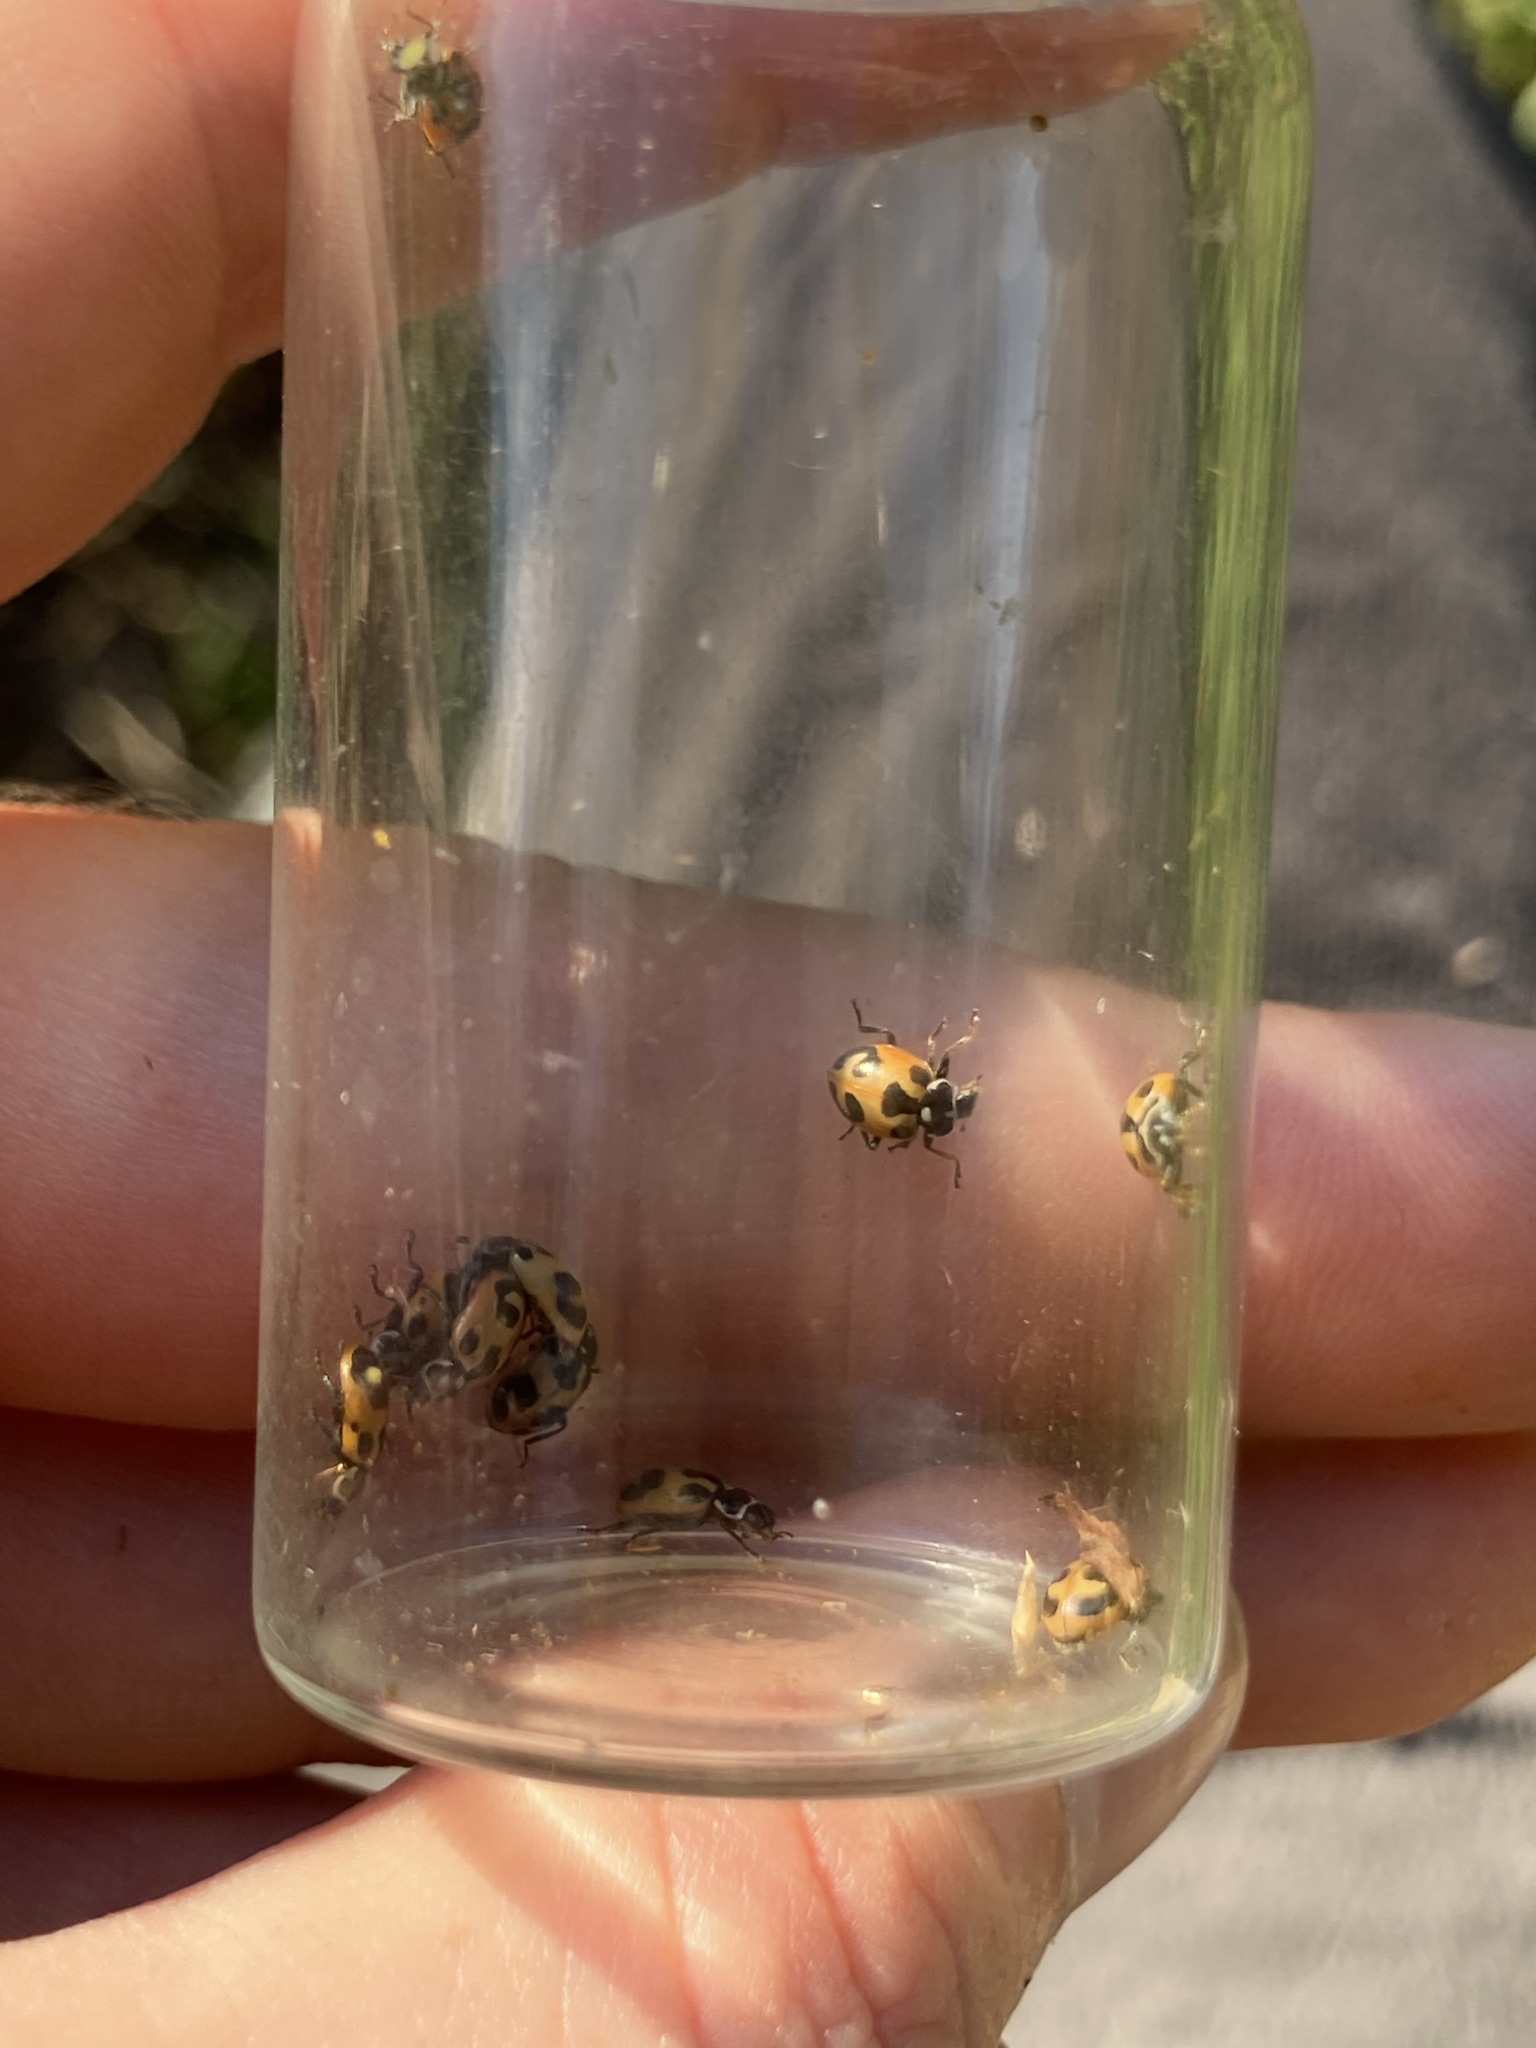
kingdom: Animalia
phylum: Arthropoda
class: Insecta
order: Coleoptera
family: Coccinellidae
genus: Hippodamia
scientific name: Hippodamia parenthesis
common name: Parenthesis lady beetle
